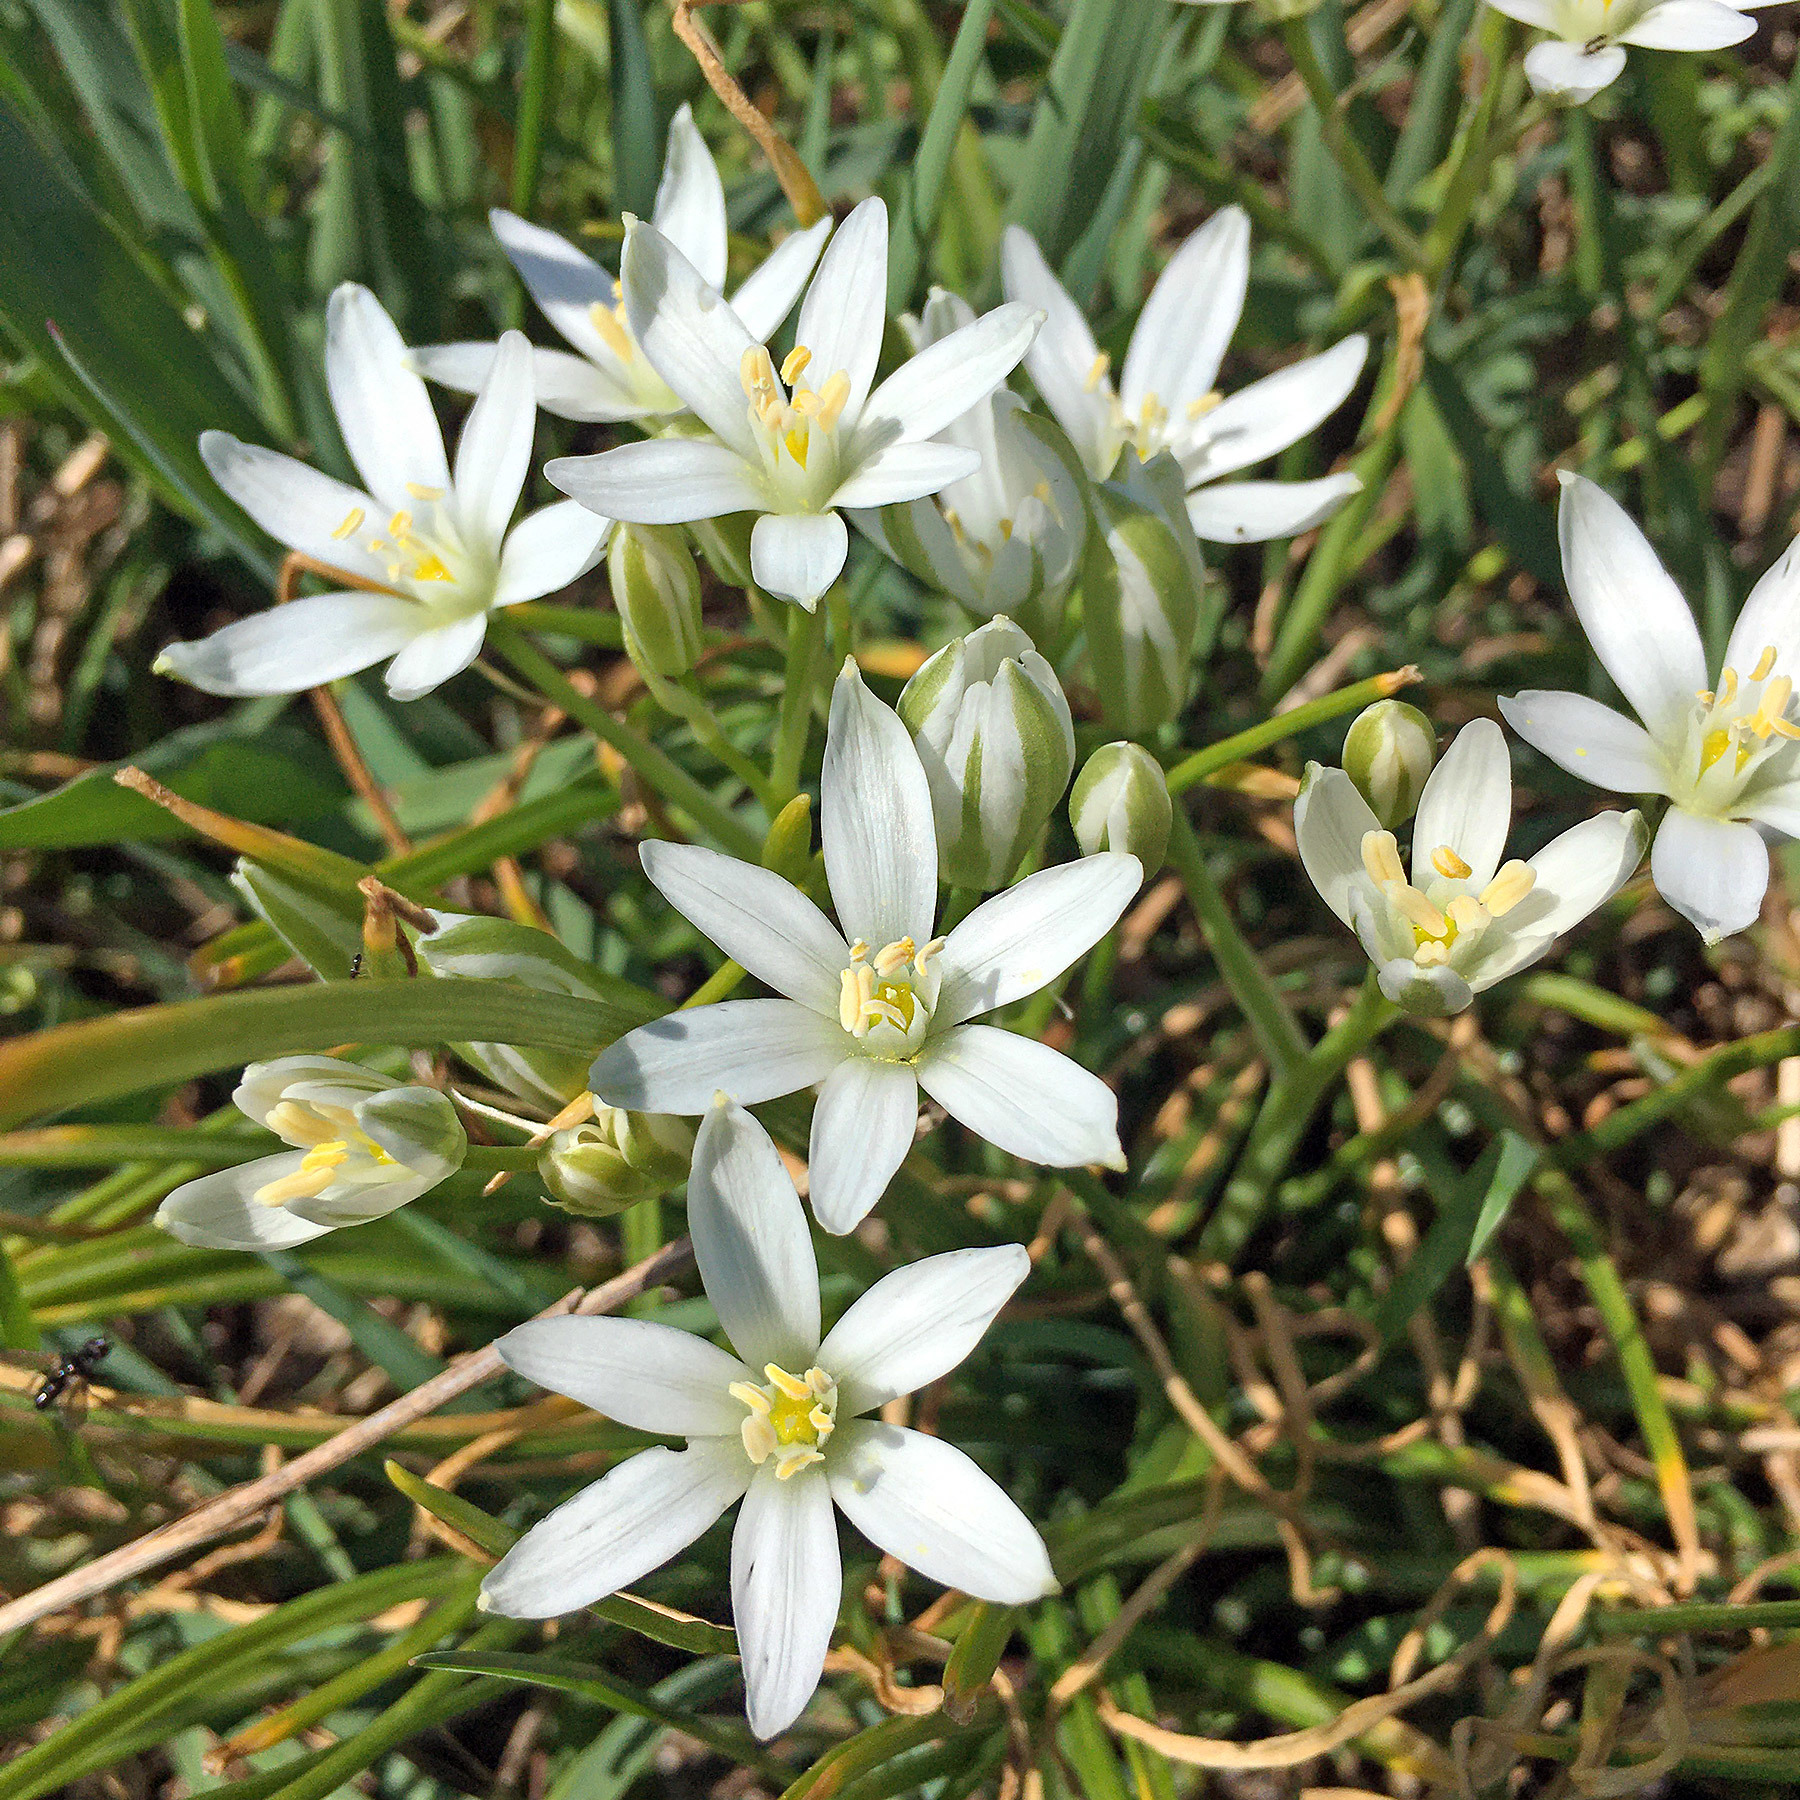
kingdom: Plantae
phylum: Tracheophyta
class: Liliopsida
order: Asparagales
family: Asparagaceae
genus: Ornithogalum
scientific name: Ornithogalum umbellatum
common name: Garden star-of-bethlehem
